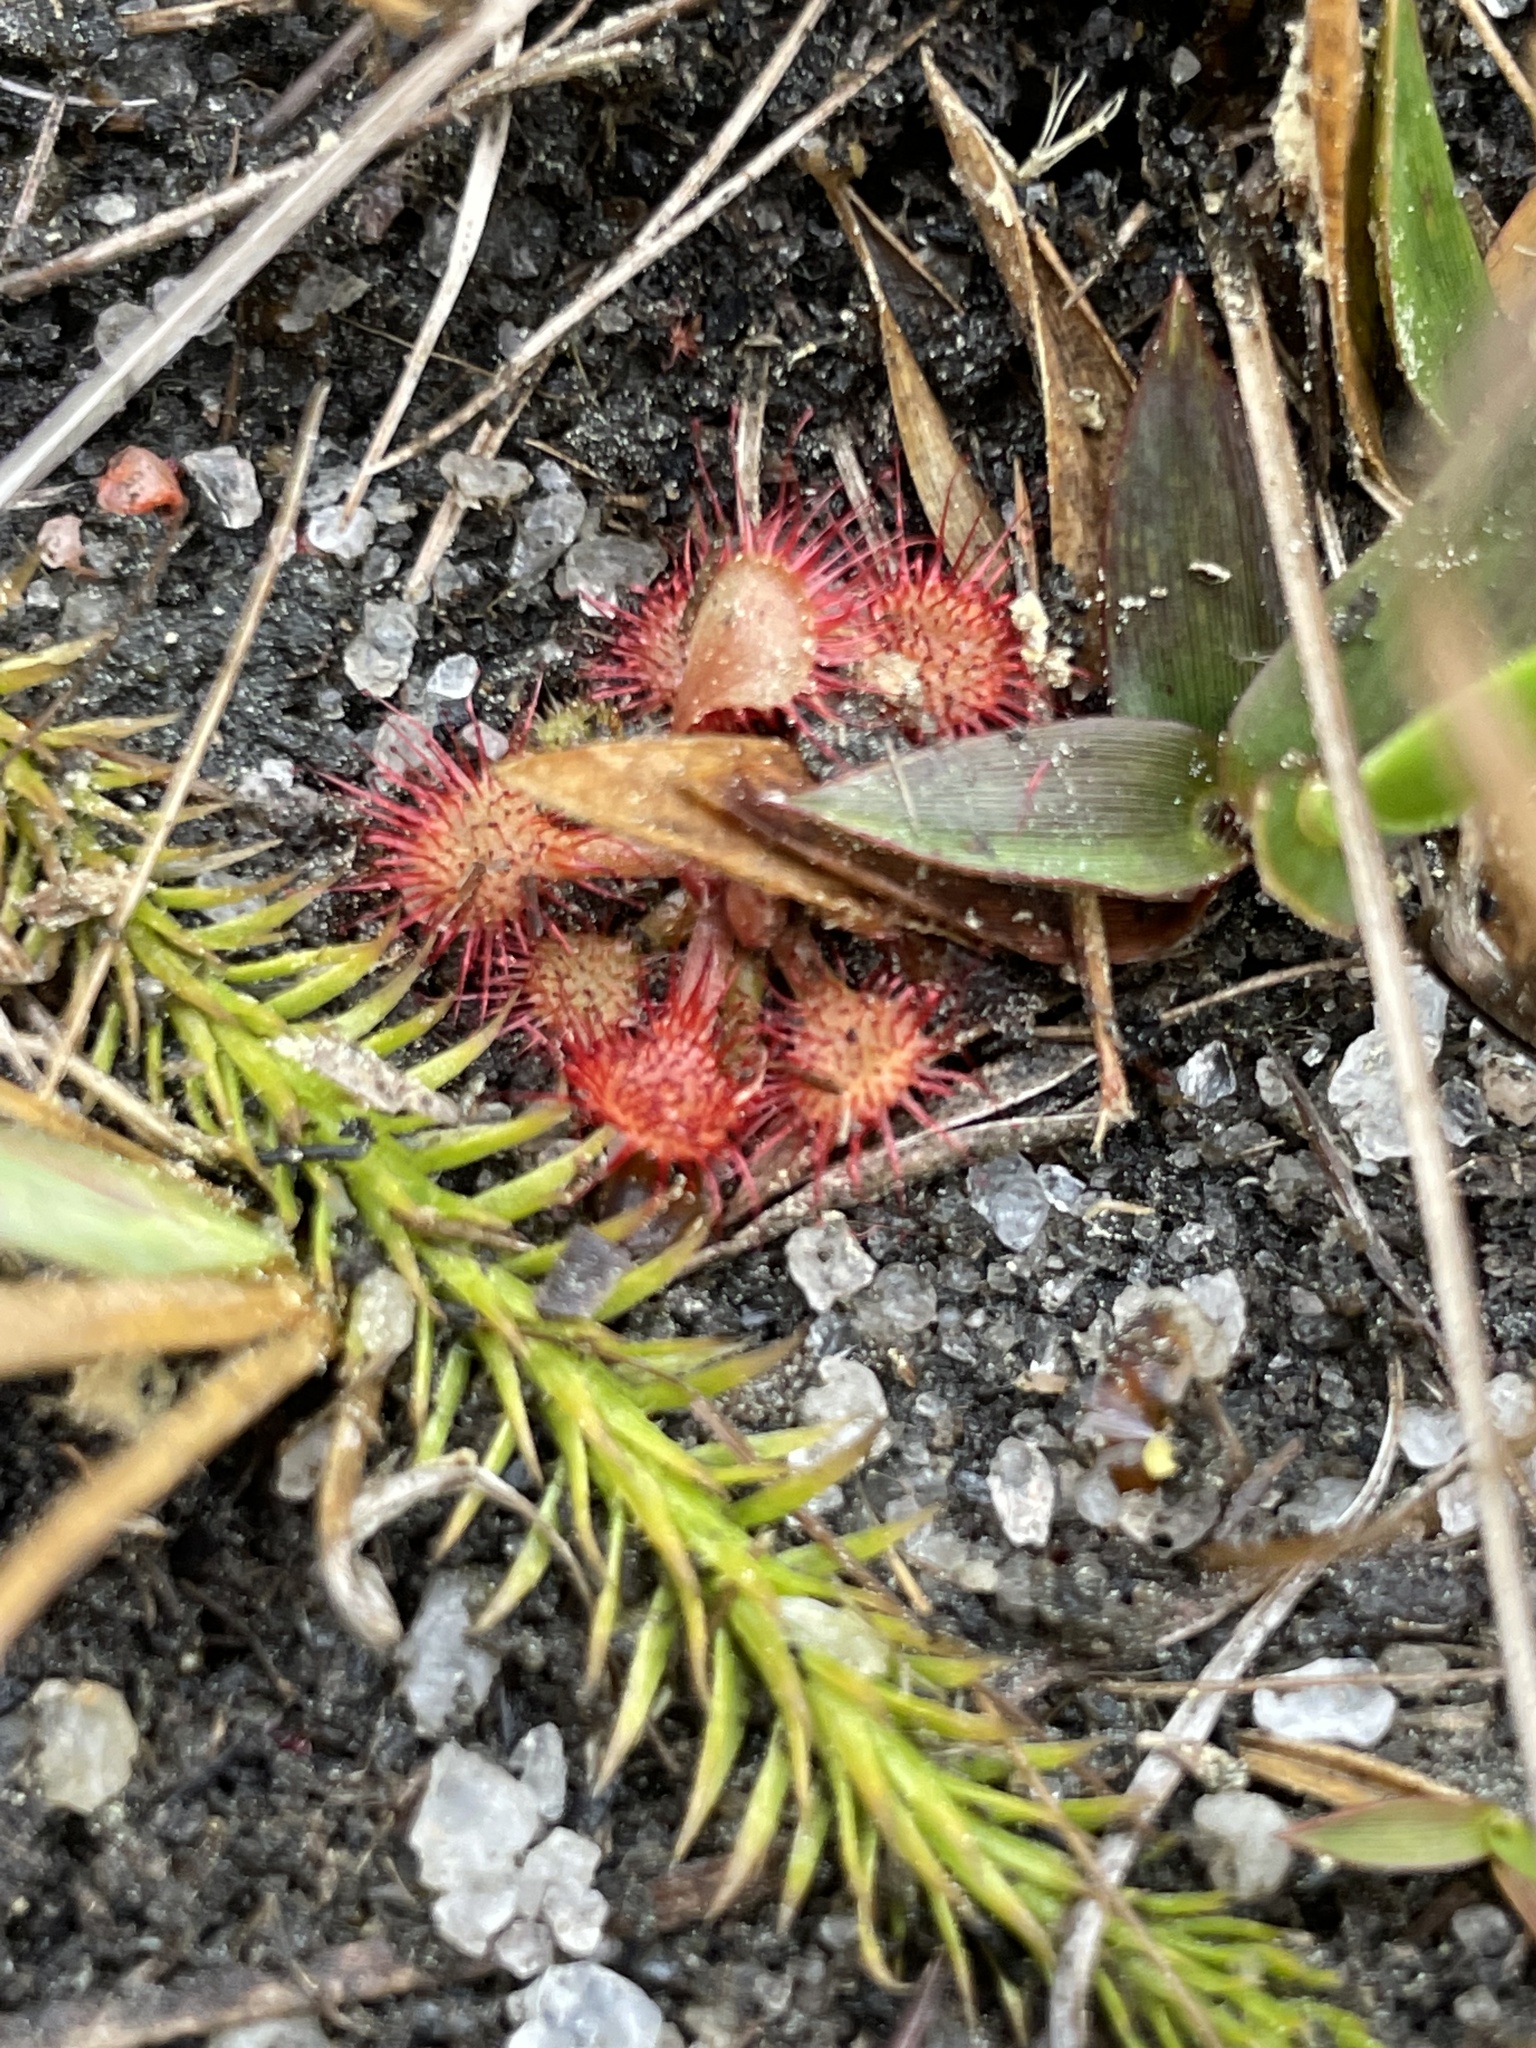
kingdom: Plantae
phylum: Tracheophyta
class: Magnoliopsida
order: Caryophyllales
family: Droseraceae
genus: Drosera
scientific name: Drosera capillaris
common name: Pink sundew
